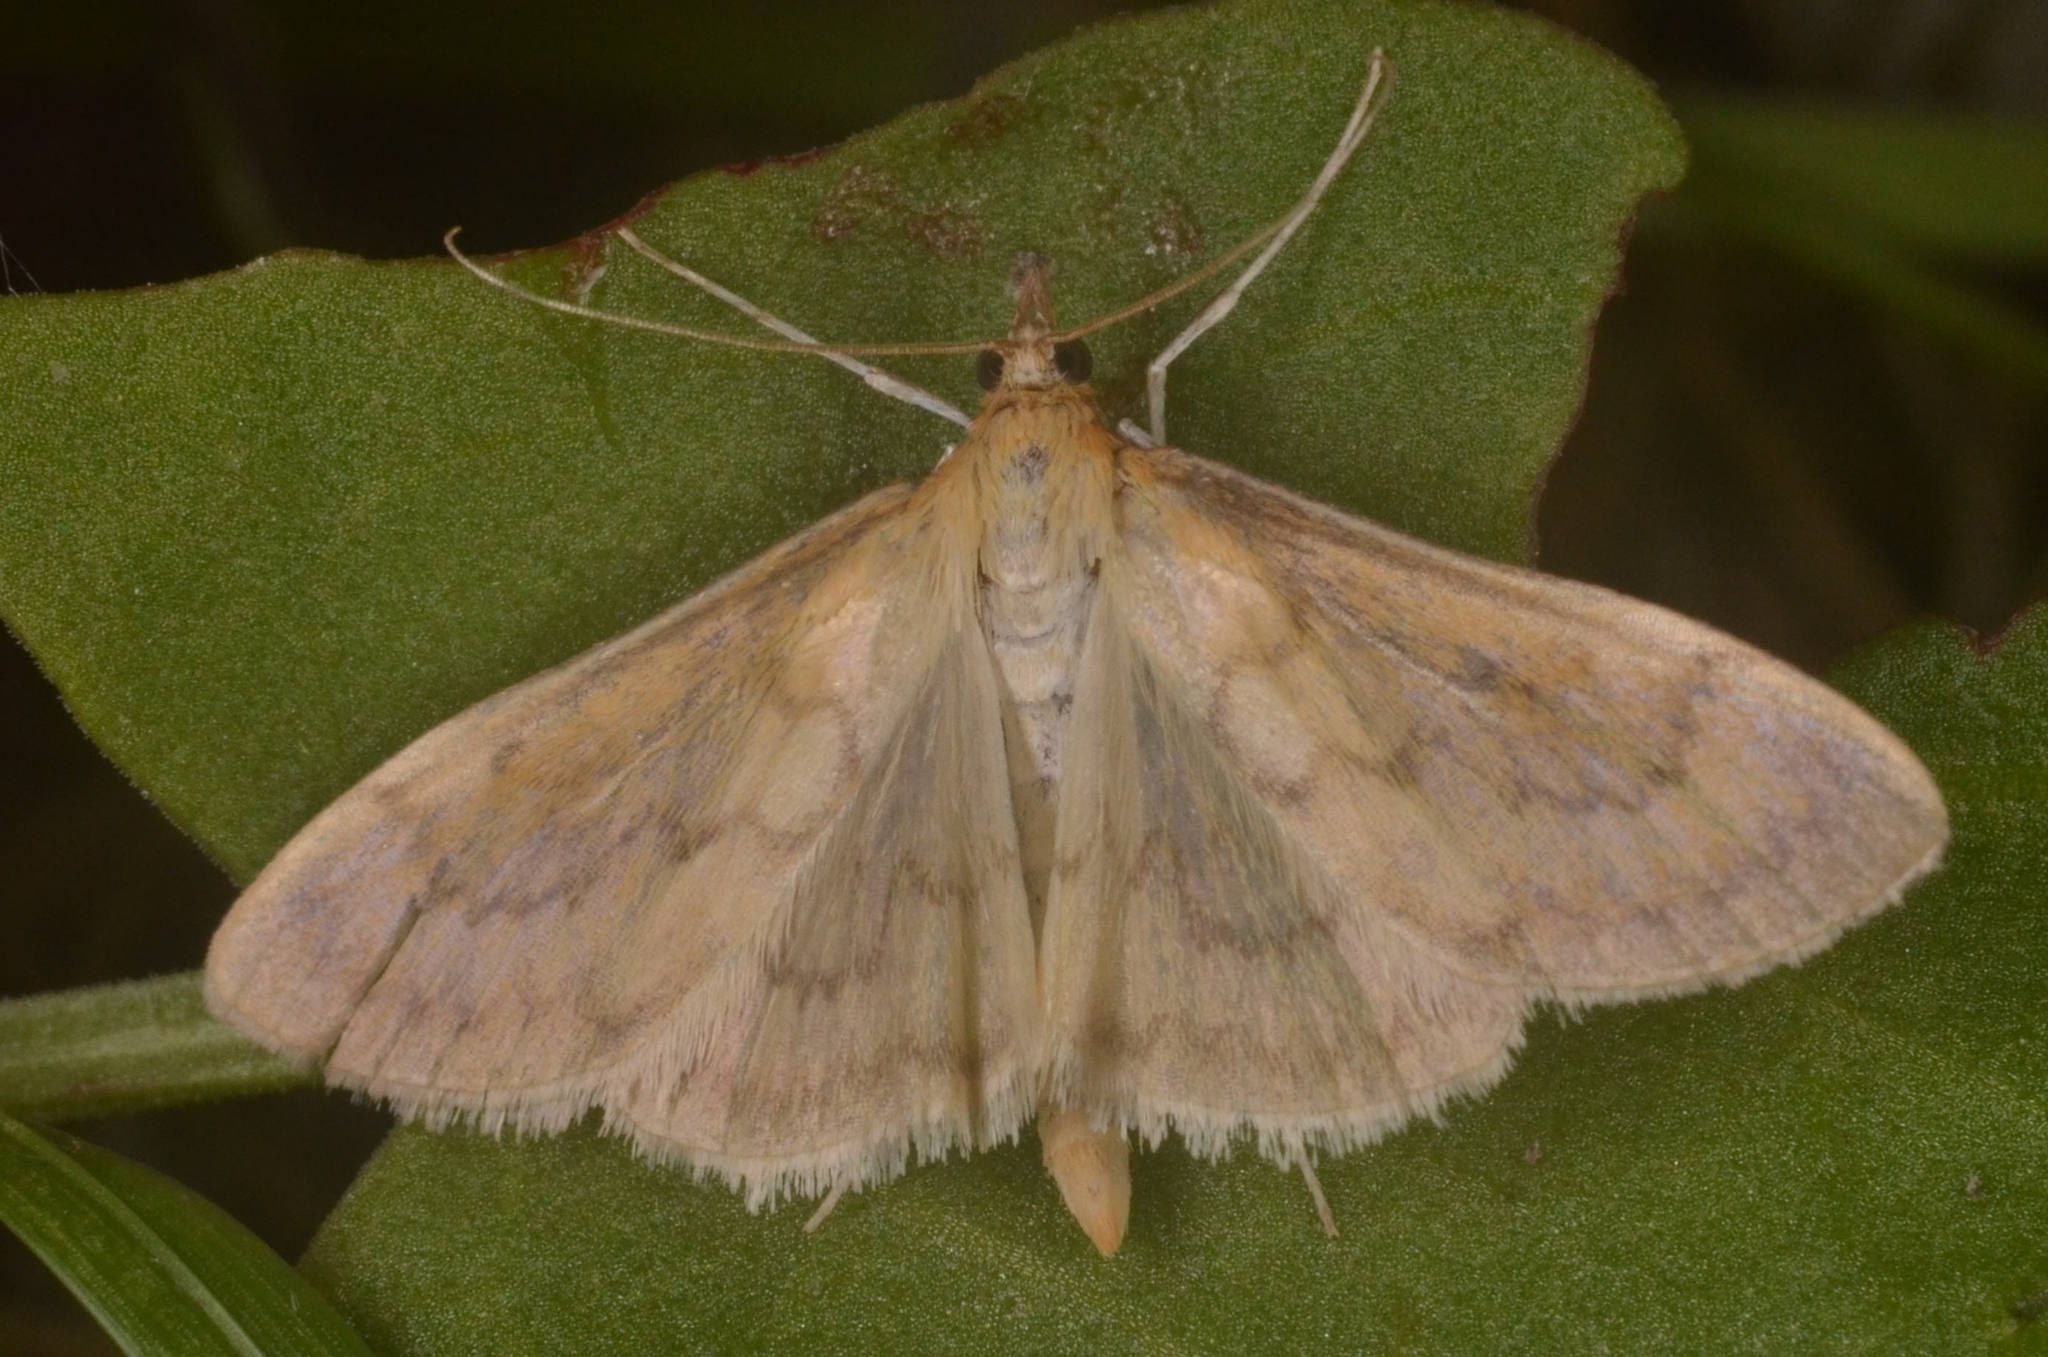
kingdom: Animalia
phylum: Arthropoda
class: Insecta
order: Lepidoptera
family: Crambidae
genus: Paratalanta
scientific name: Paratalanta pandalis
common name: Bordered pearl
